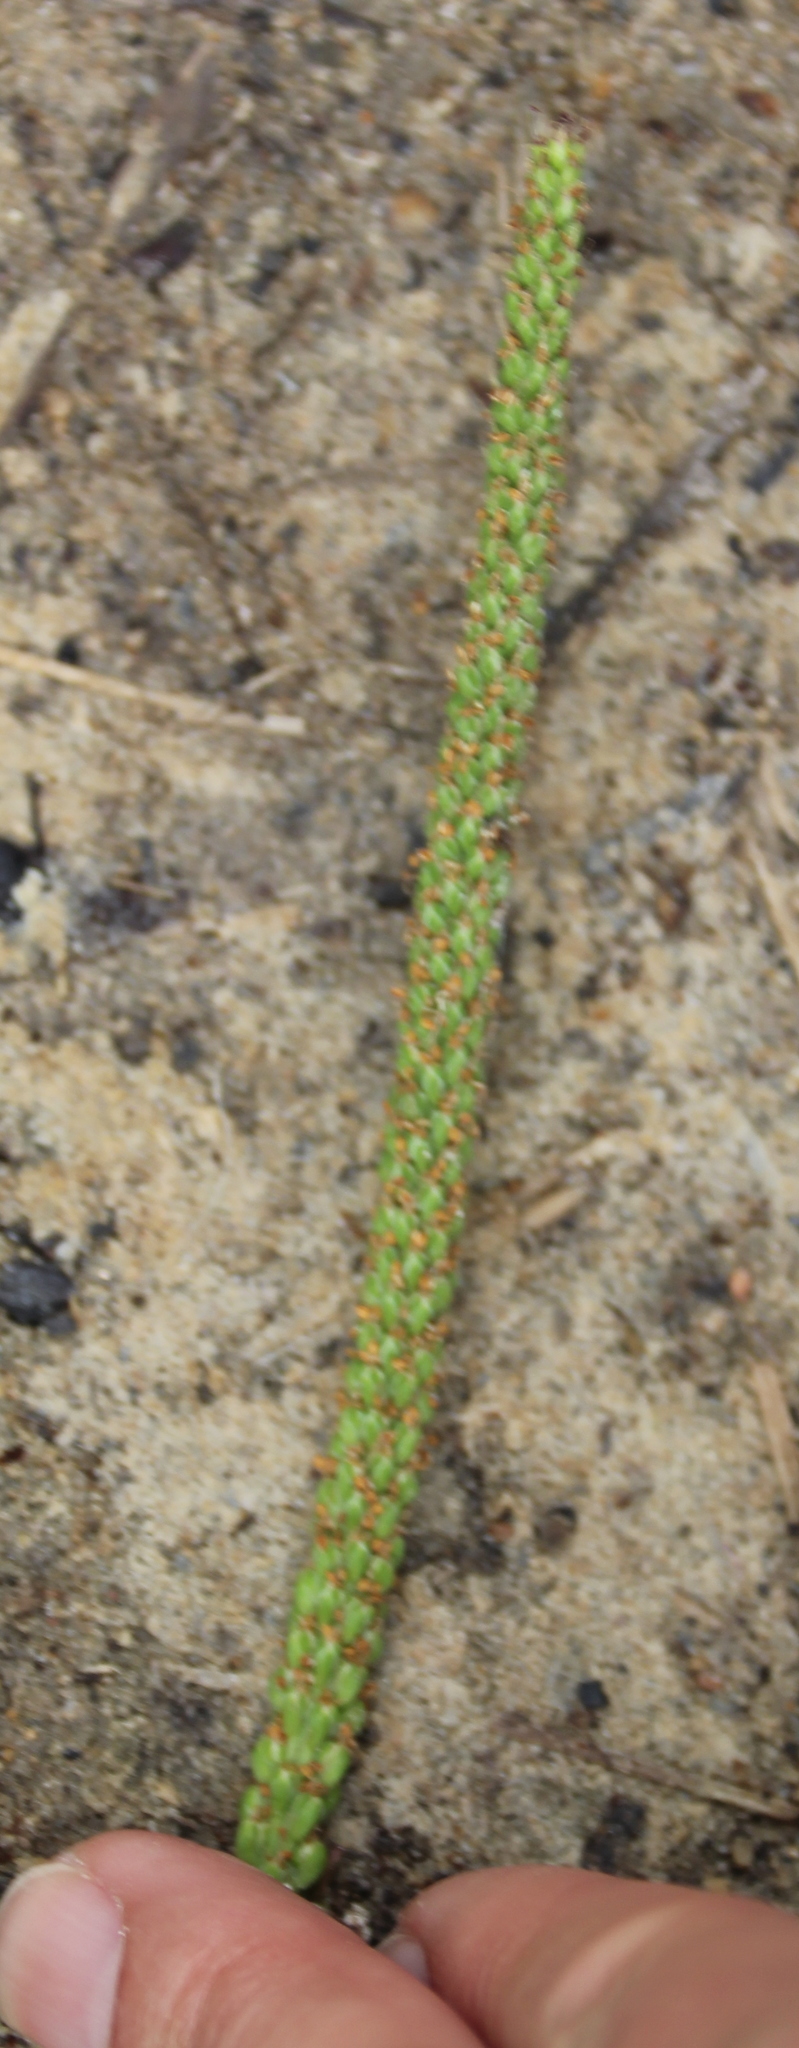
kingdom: Plantae
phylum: Tracheophyta
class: Magnoliopsida
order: Lamiales
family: Plantaginaceae
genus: Plantago
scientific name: Plantago major
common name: Common plantain
